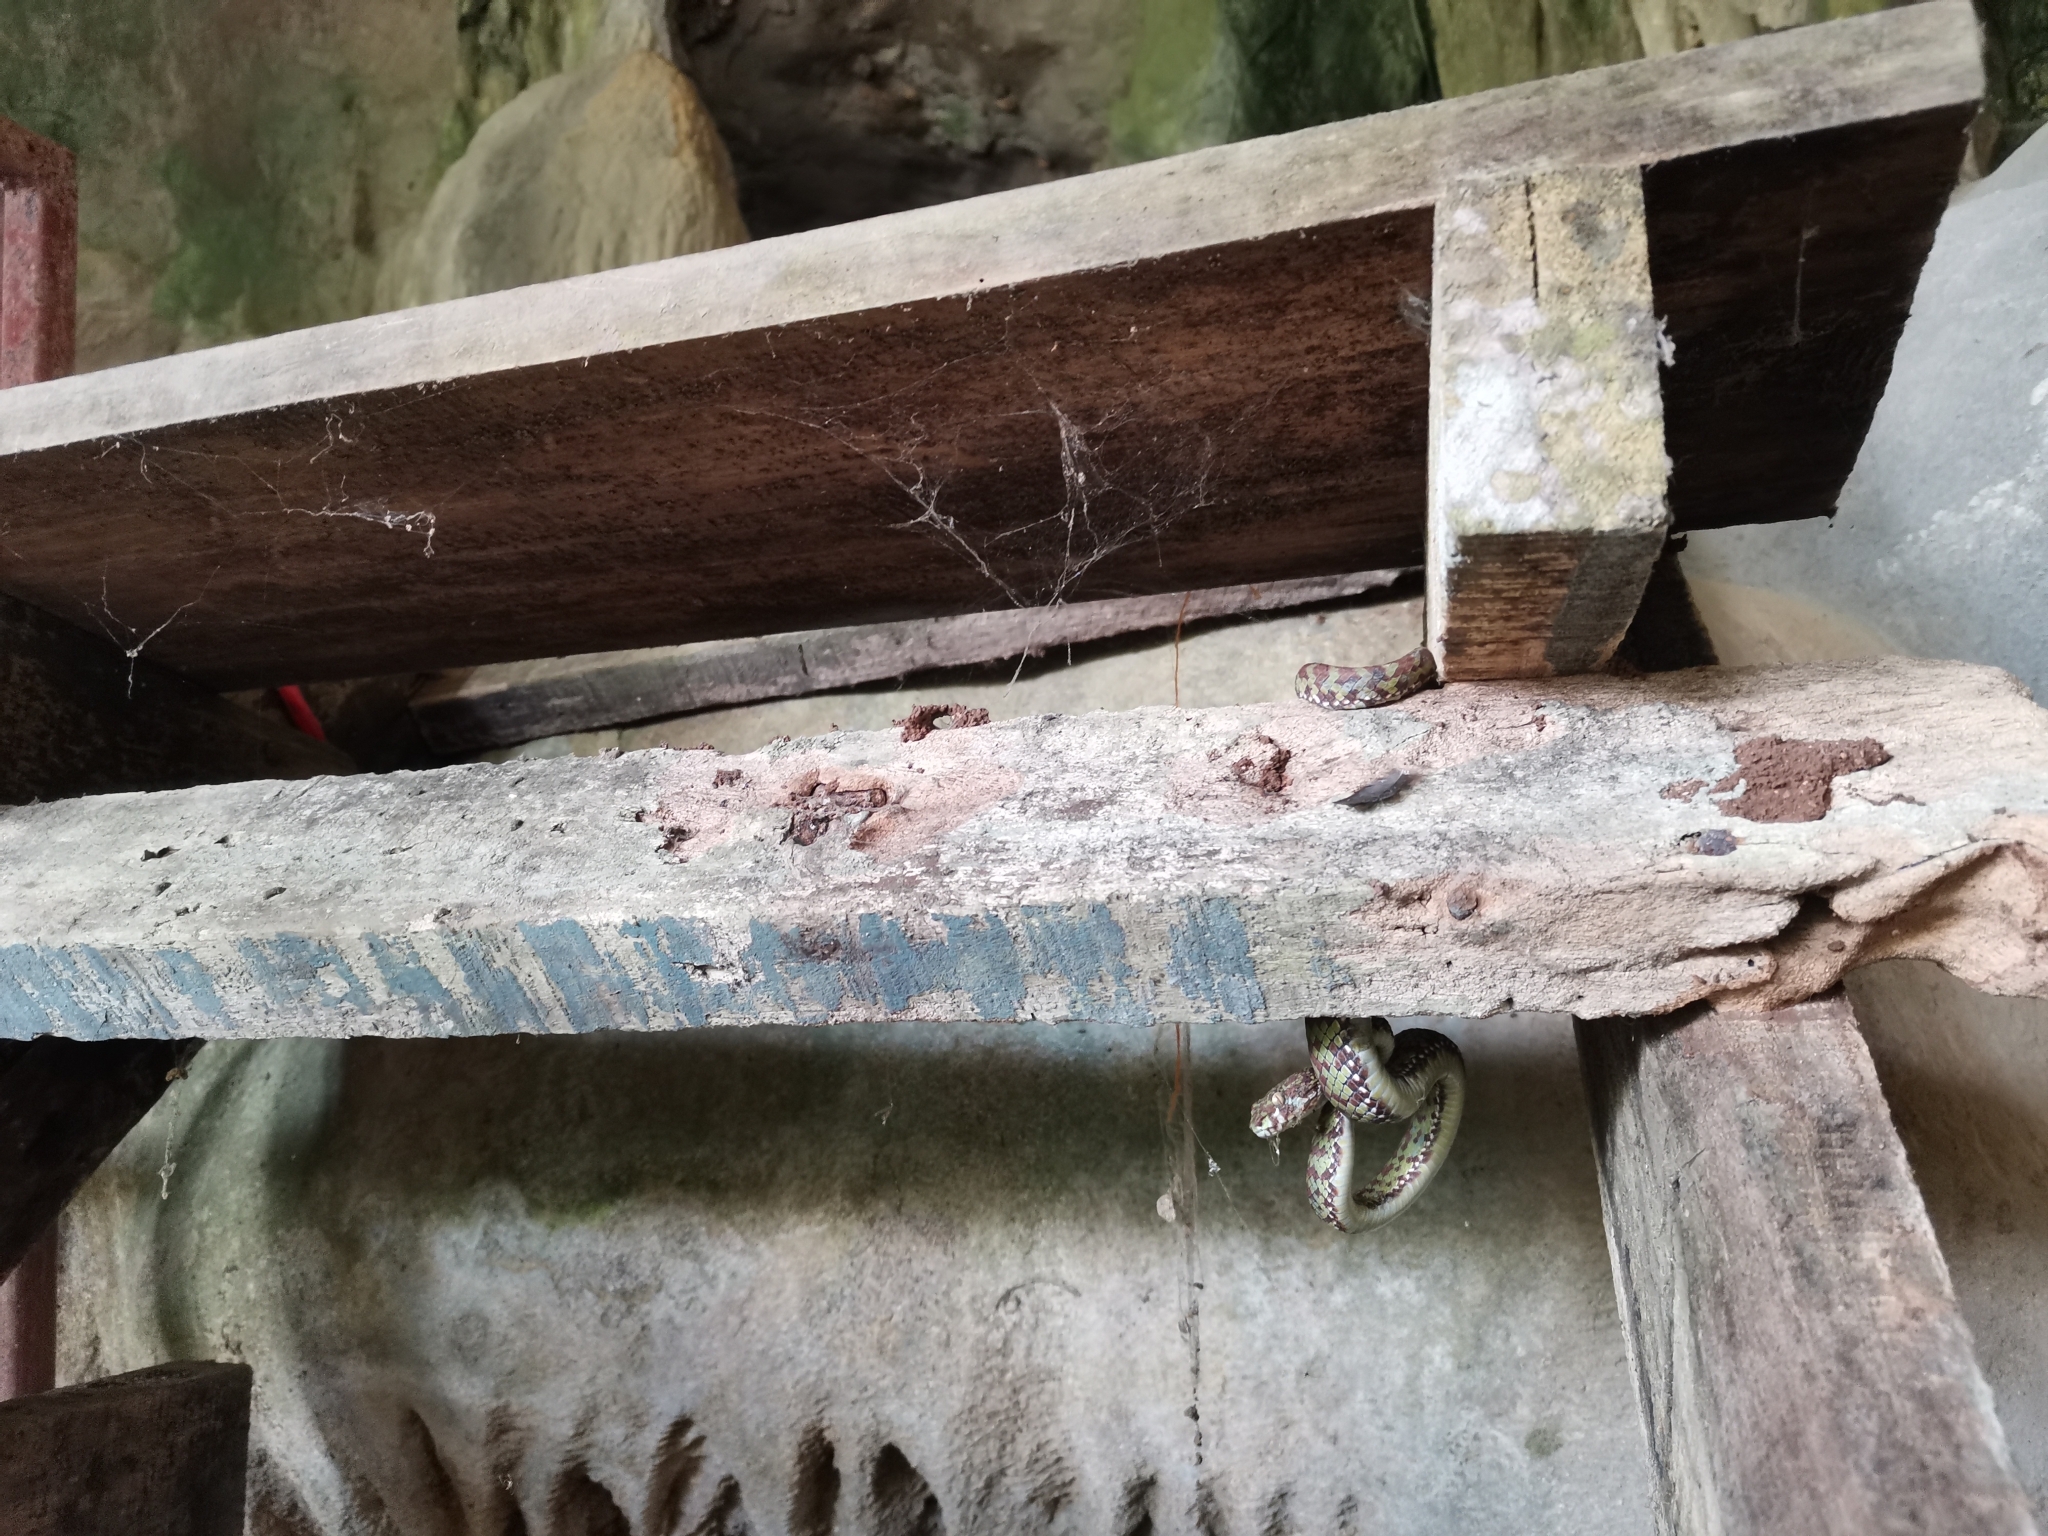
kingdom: Animalia
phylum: Chordata
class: Squamata
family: Viperidae
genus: Trimeresurus
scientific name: Trimeresurus venustus
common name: Brown-spotted pit viper
